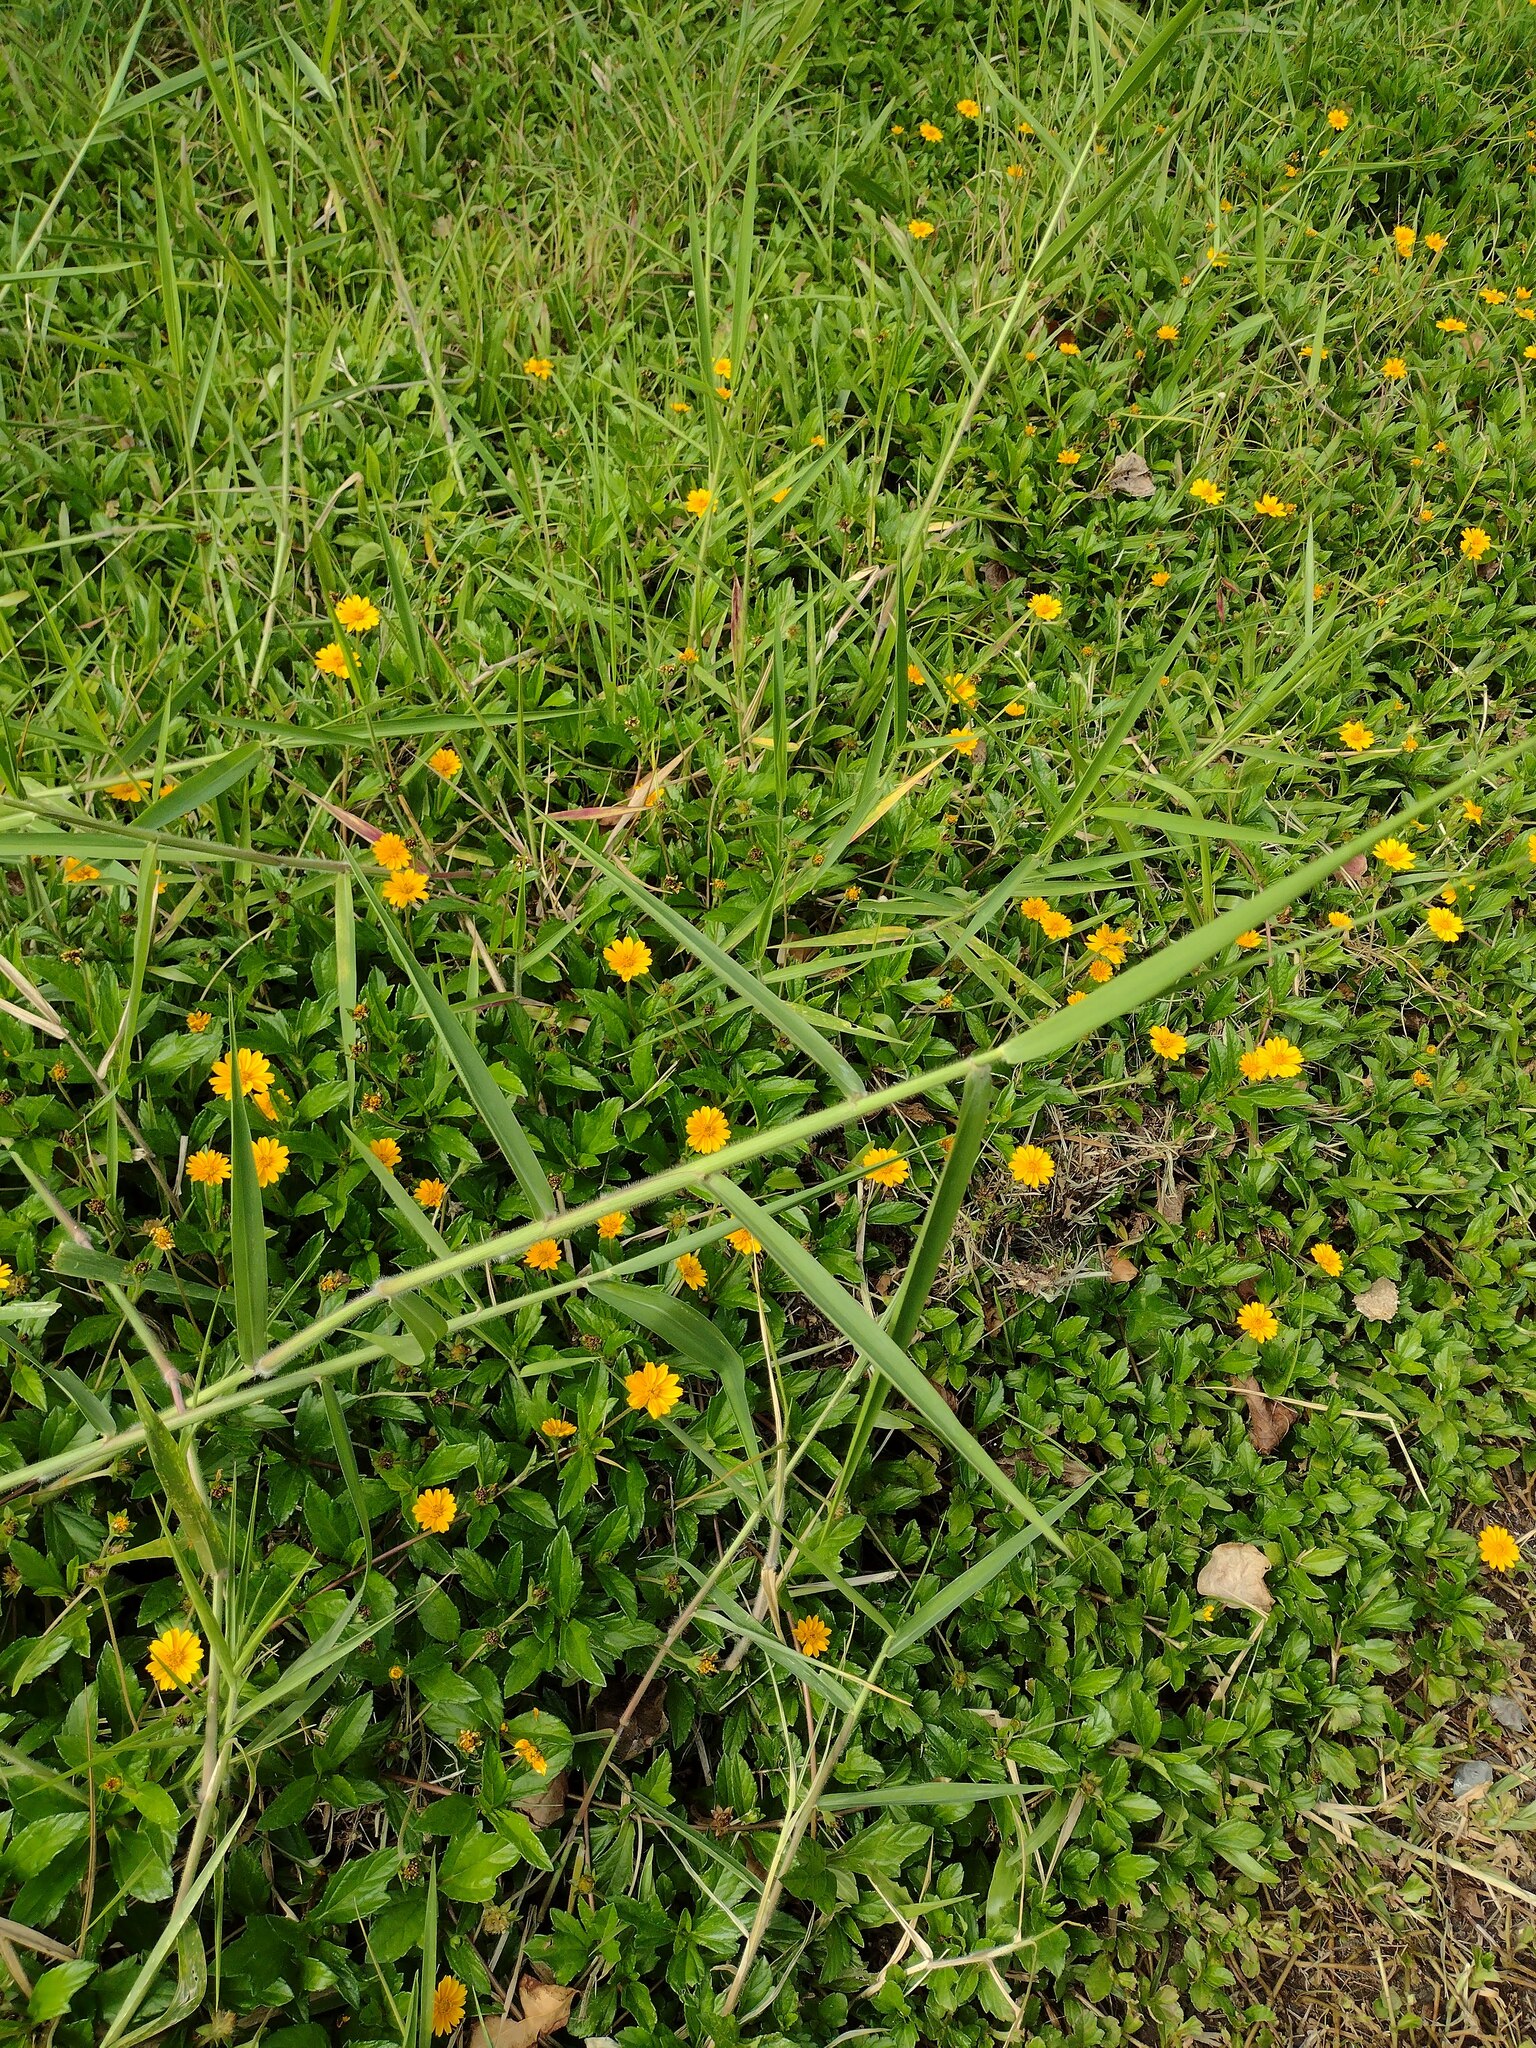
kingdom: Plantae
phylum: Tracheophyta
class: Liliopsida
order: Poales
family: Poaceae
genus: Urochloa
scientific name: Urochloa mutica
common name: Para grass
